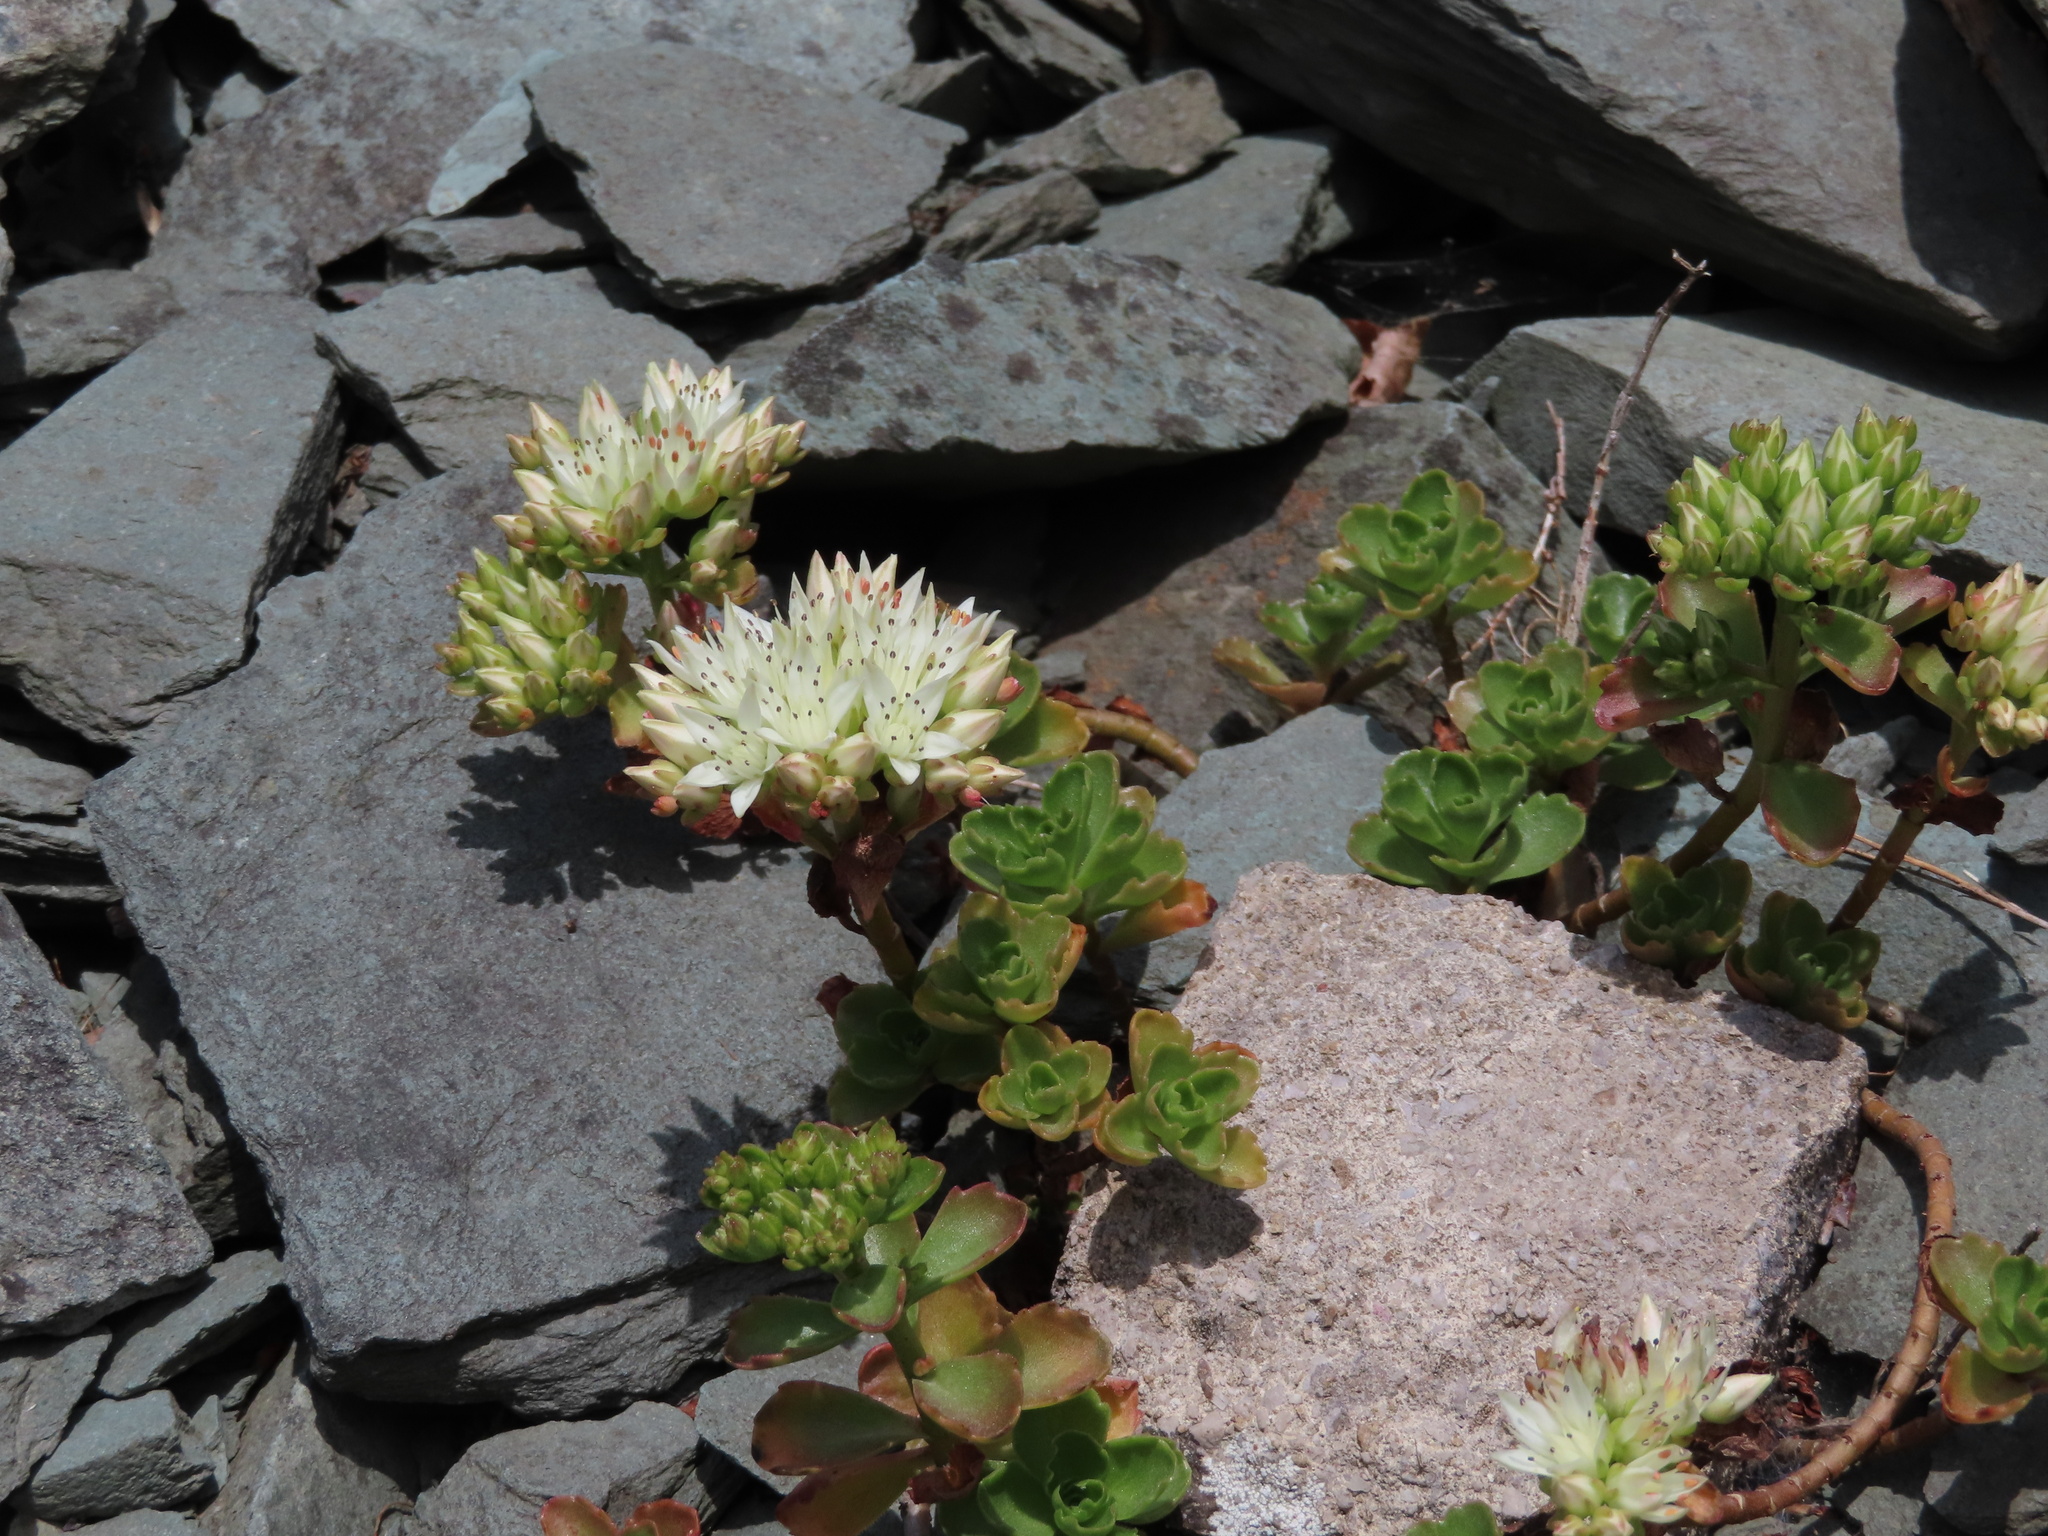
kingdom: Plantae
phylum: Tracheophyta
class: Magnoliopsida
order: Saxifragales
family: Crassulaceae
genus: Phedimus
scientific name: Phedimus spurius
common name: Caucasian stonecrop
